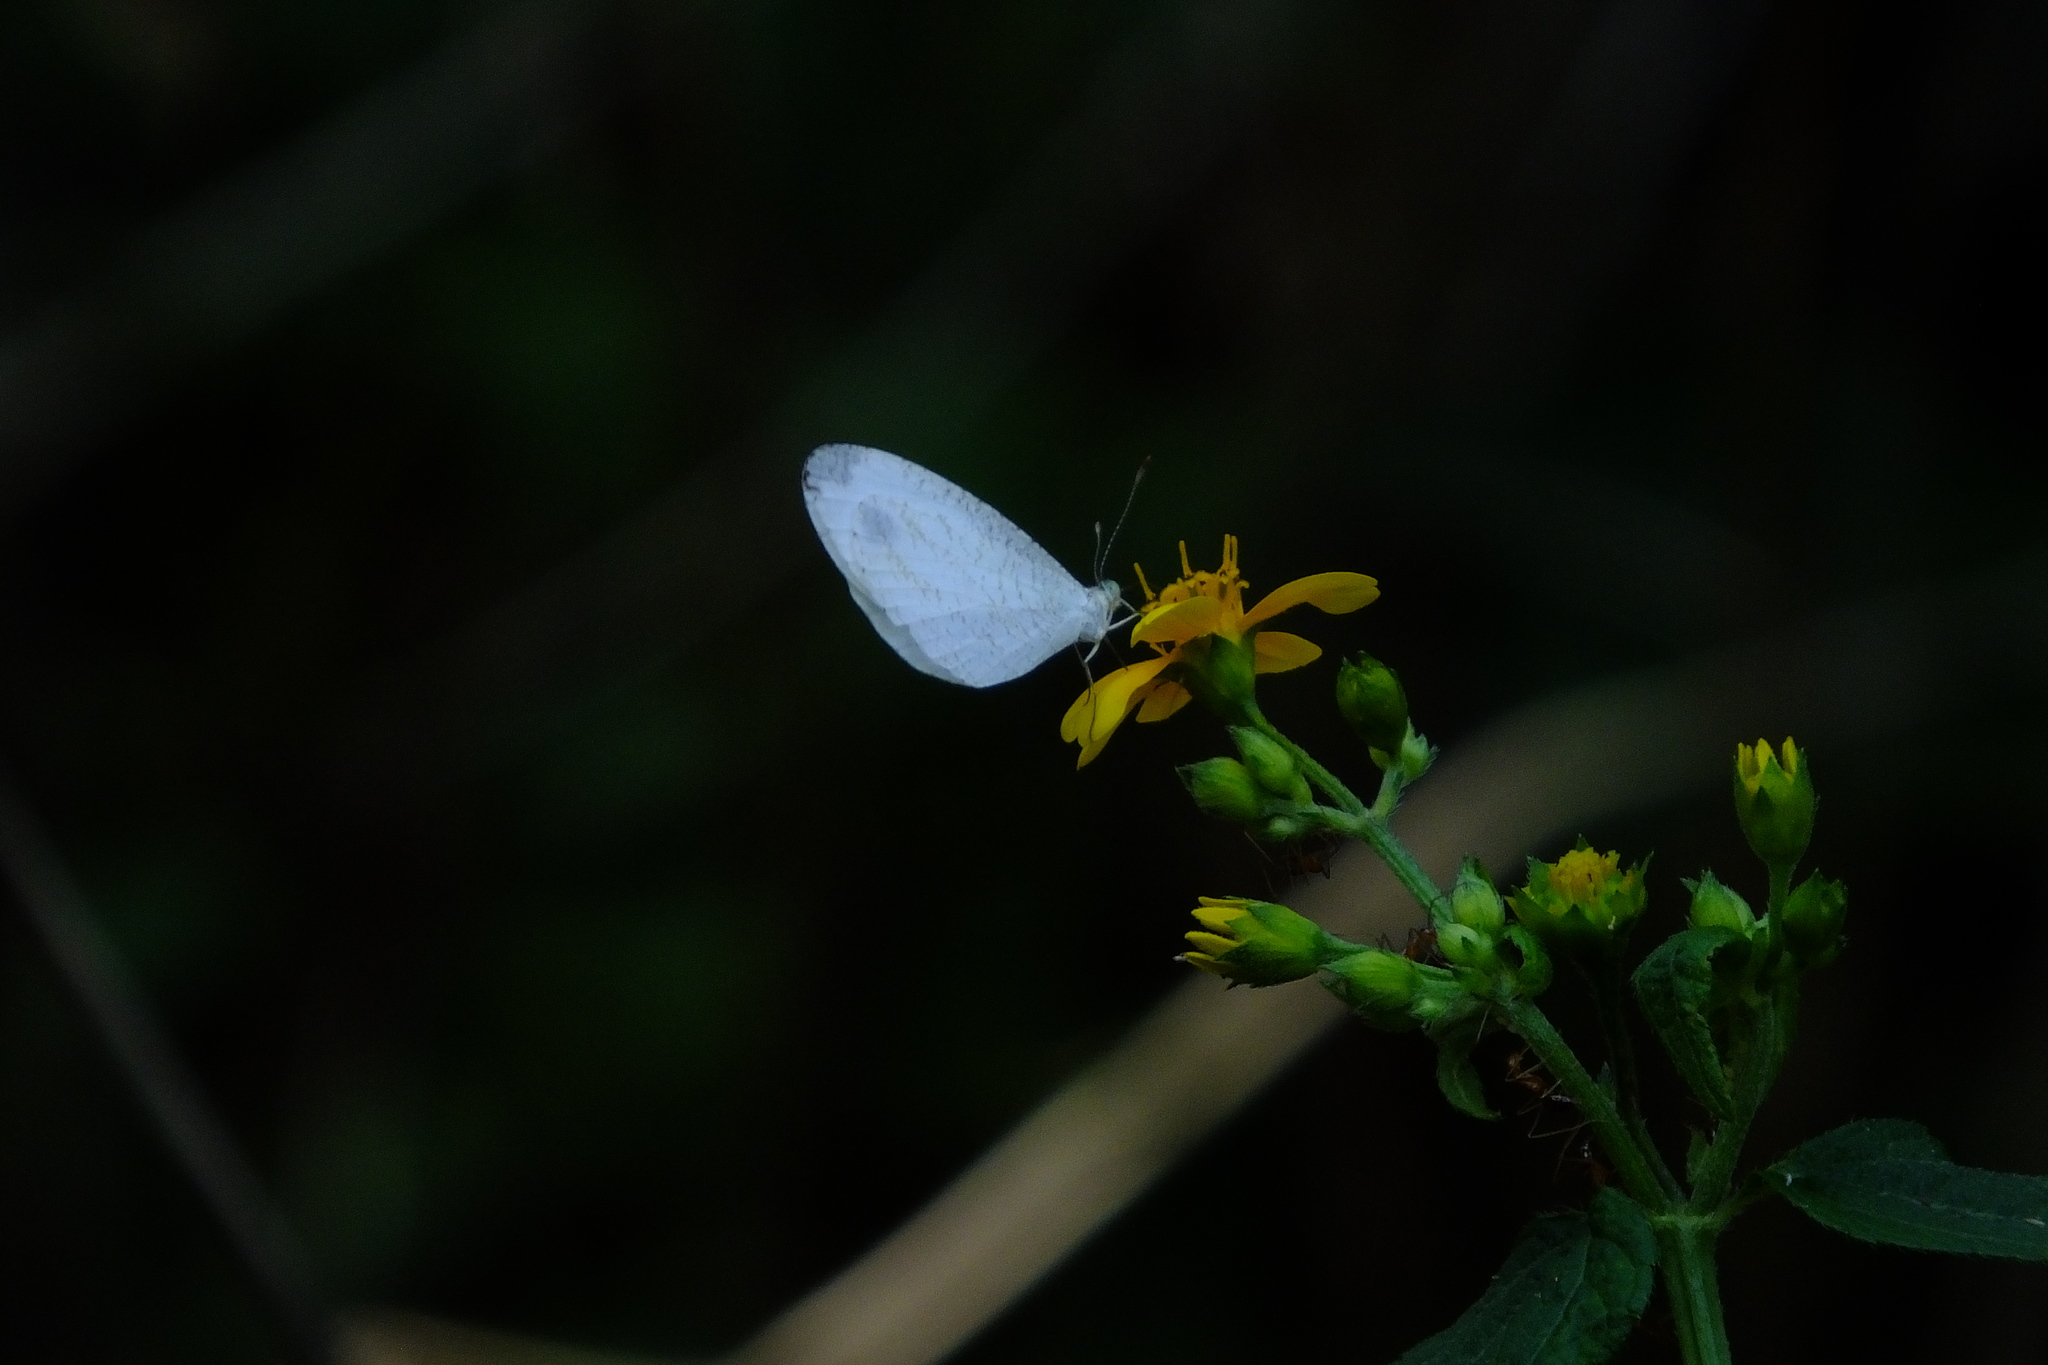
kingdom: Animalia
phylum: Arthropoda
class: Insecta
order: Lepidoptera
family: Pieridae
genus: Leptosia
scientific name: Leptosia nina
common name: Psyche
